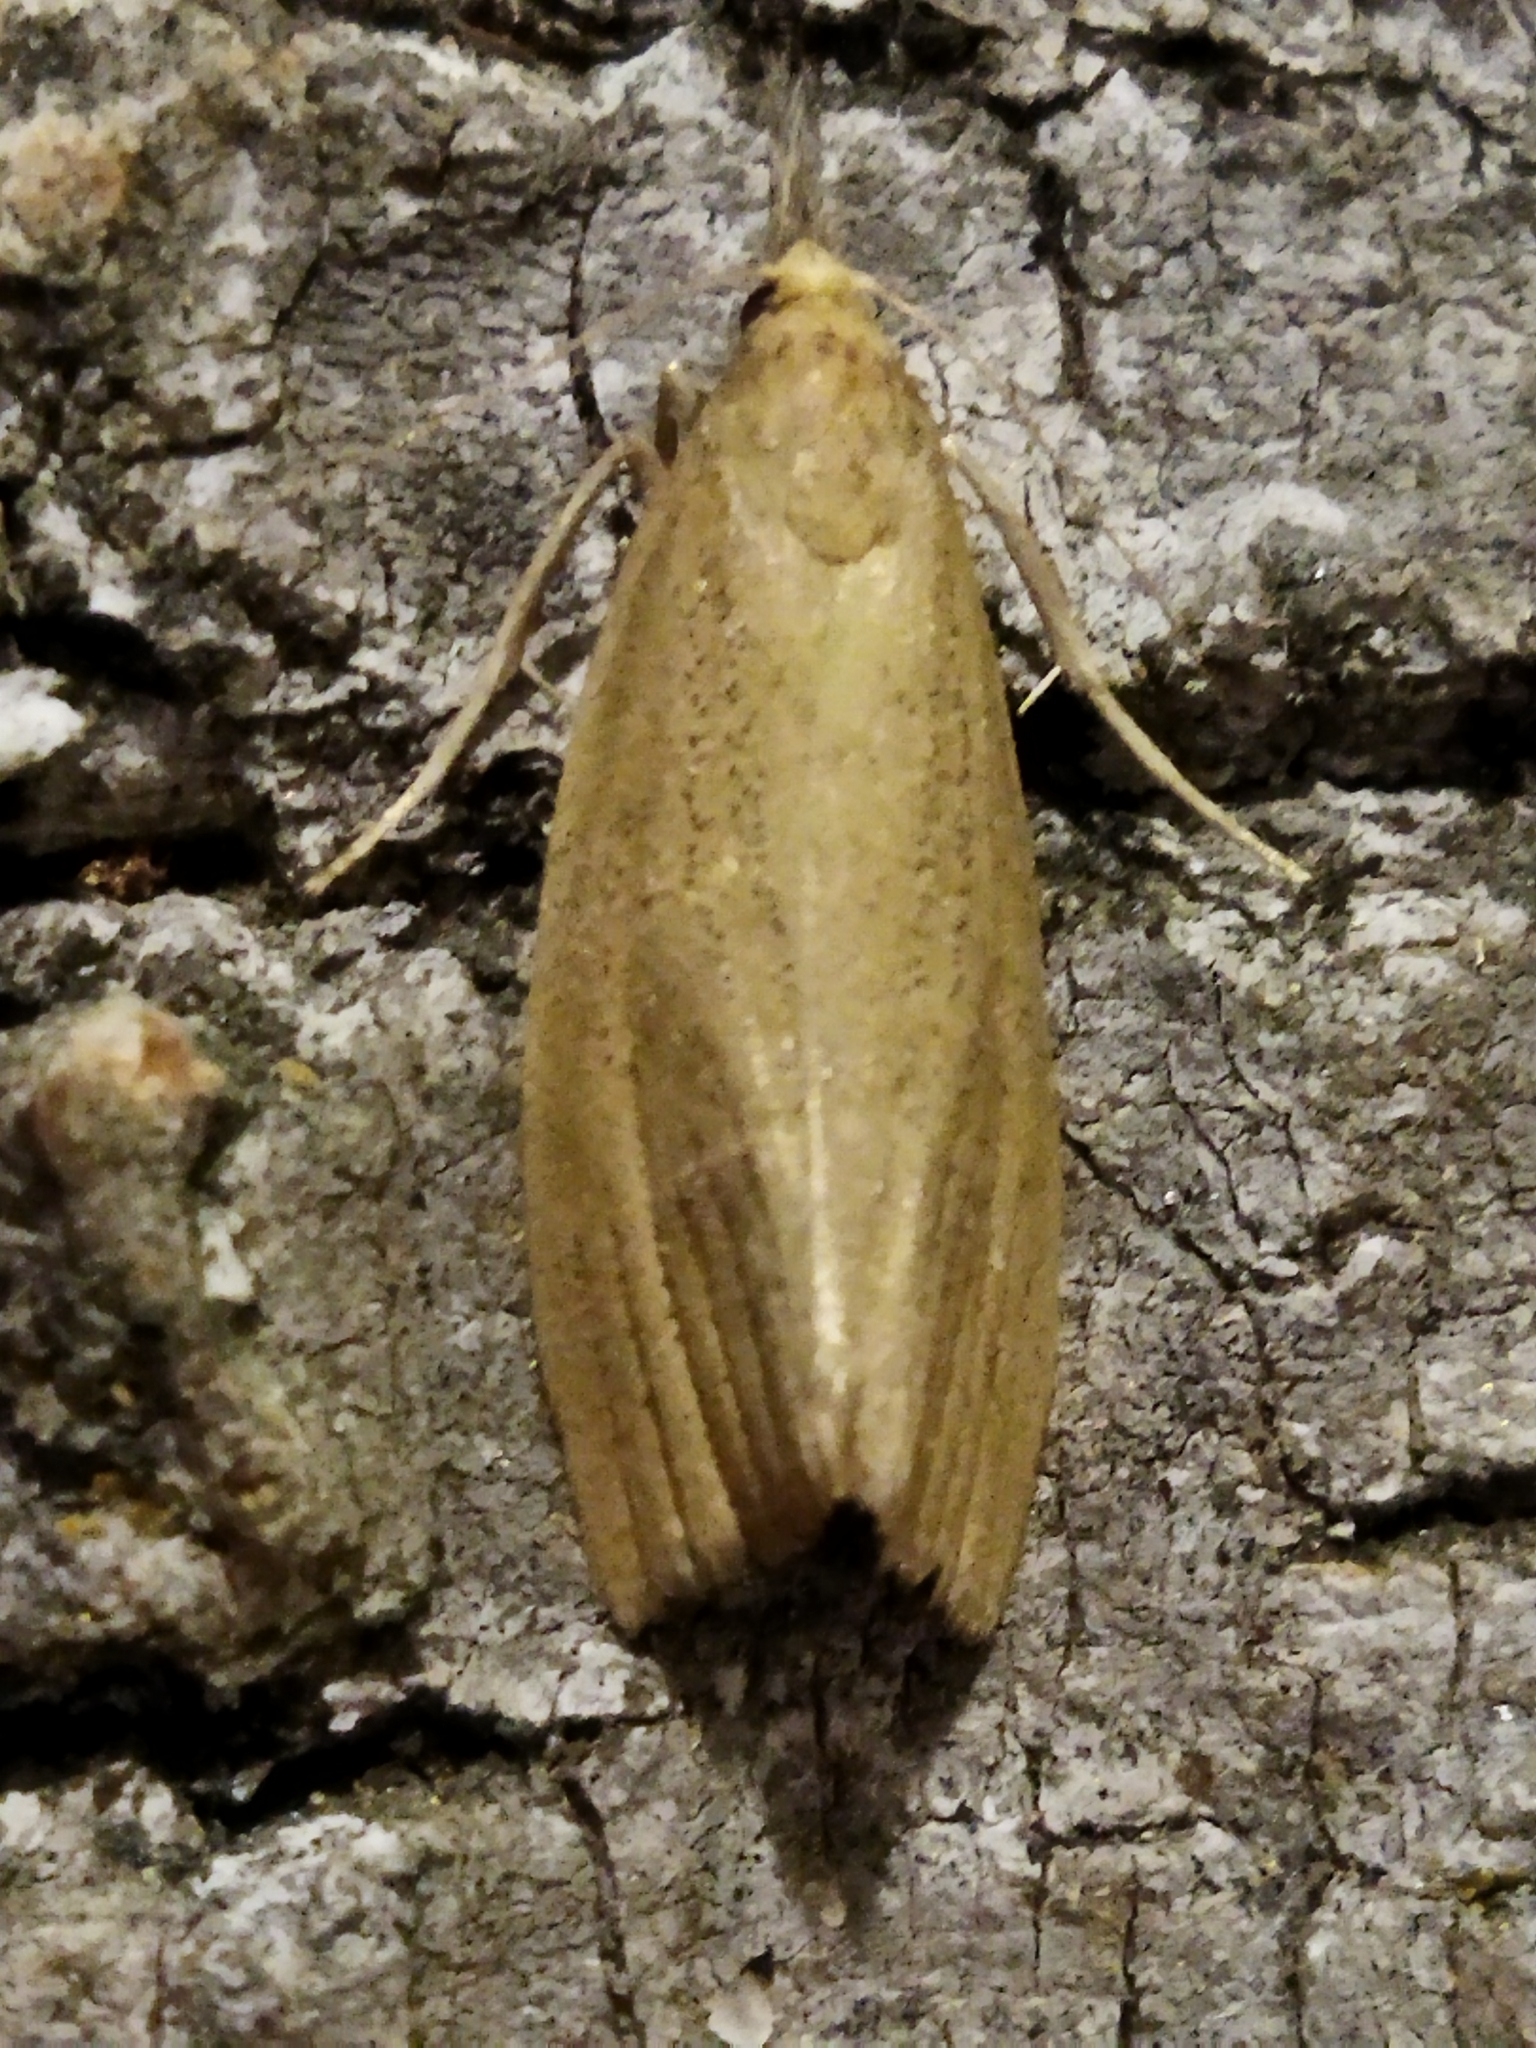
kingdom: Animalia
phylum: Arthropoda
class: Insecta
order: Lepidoptera
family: Crambidae
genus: Chilo
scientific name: Chilo luteellus
